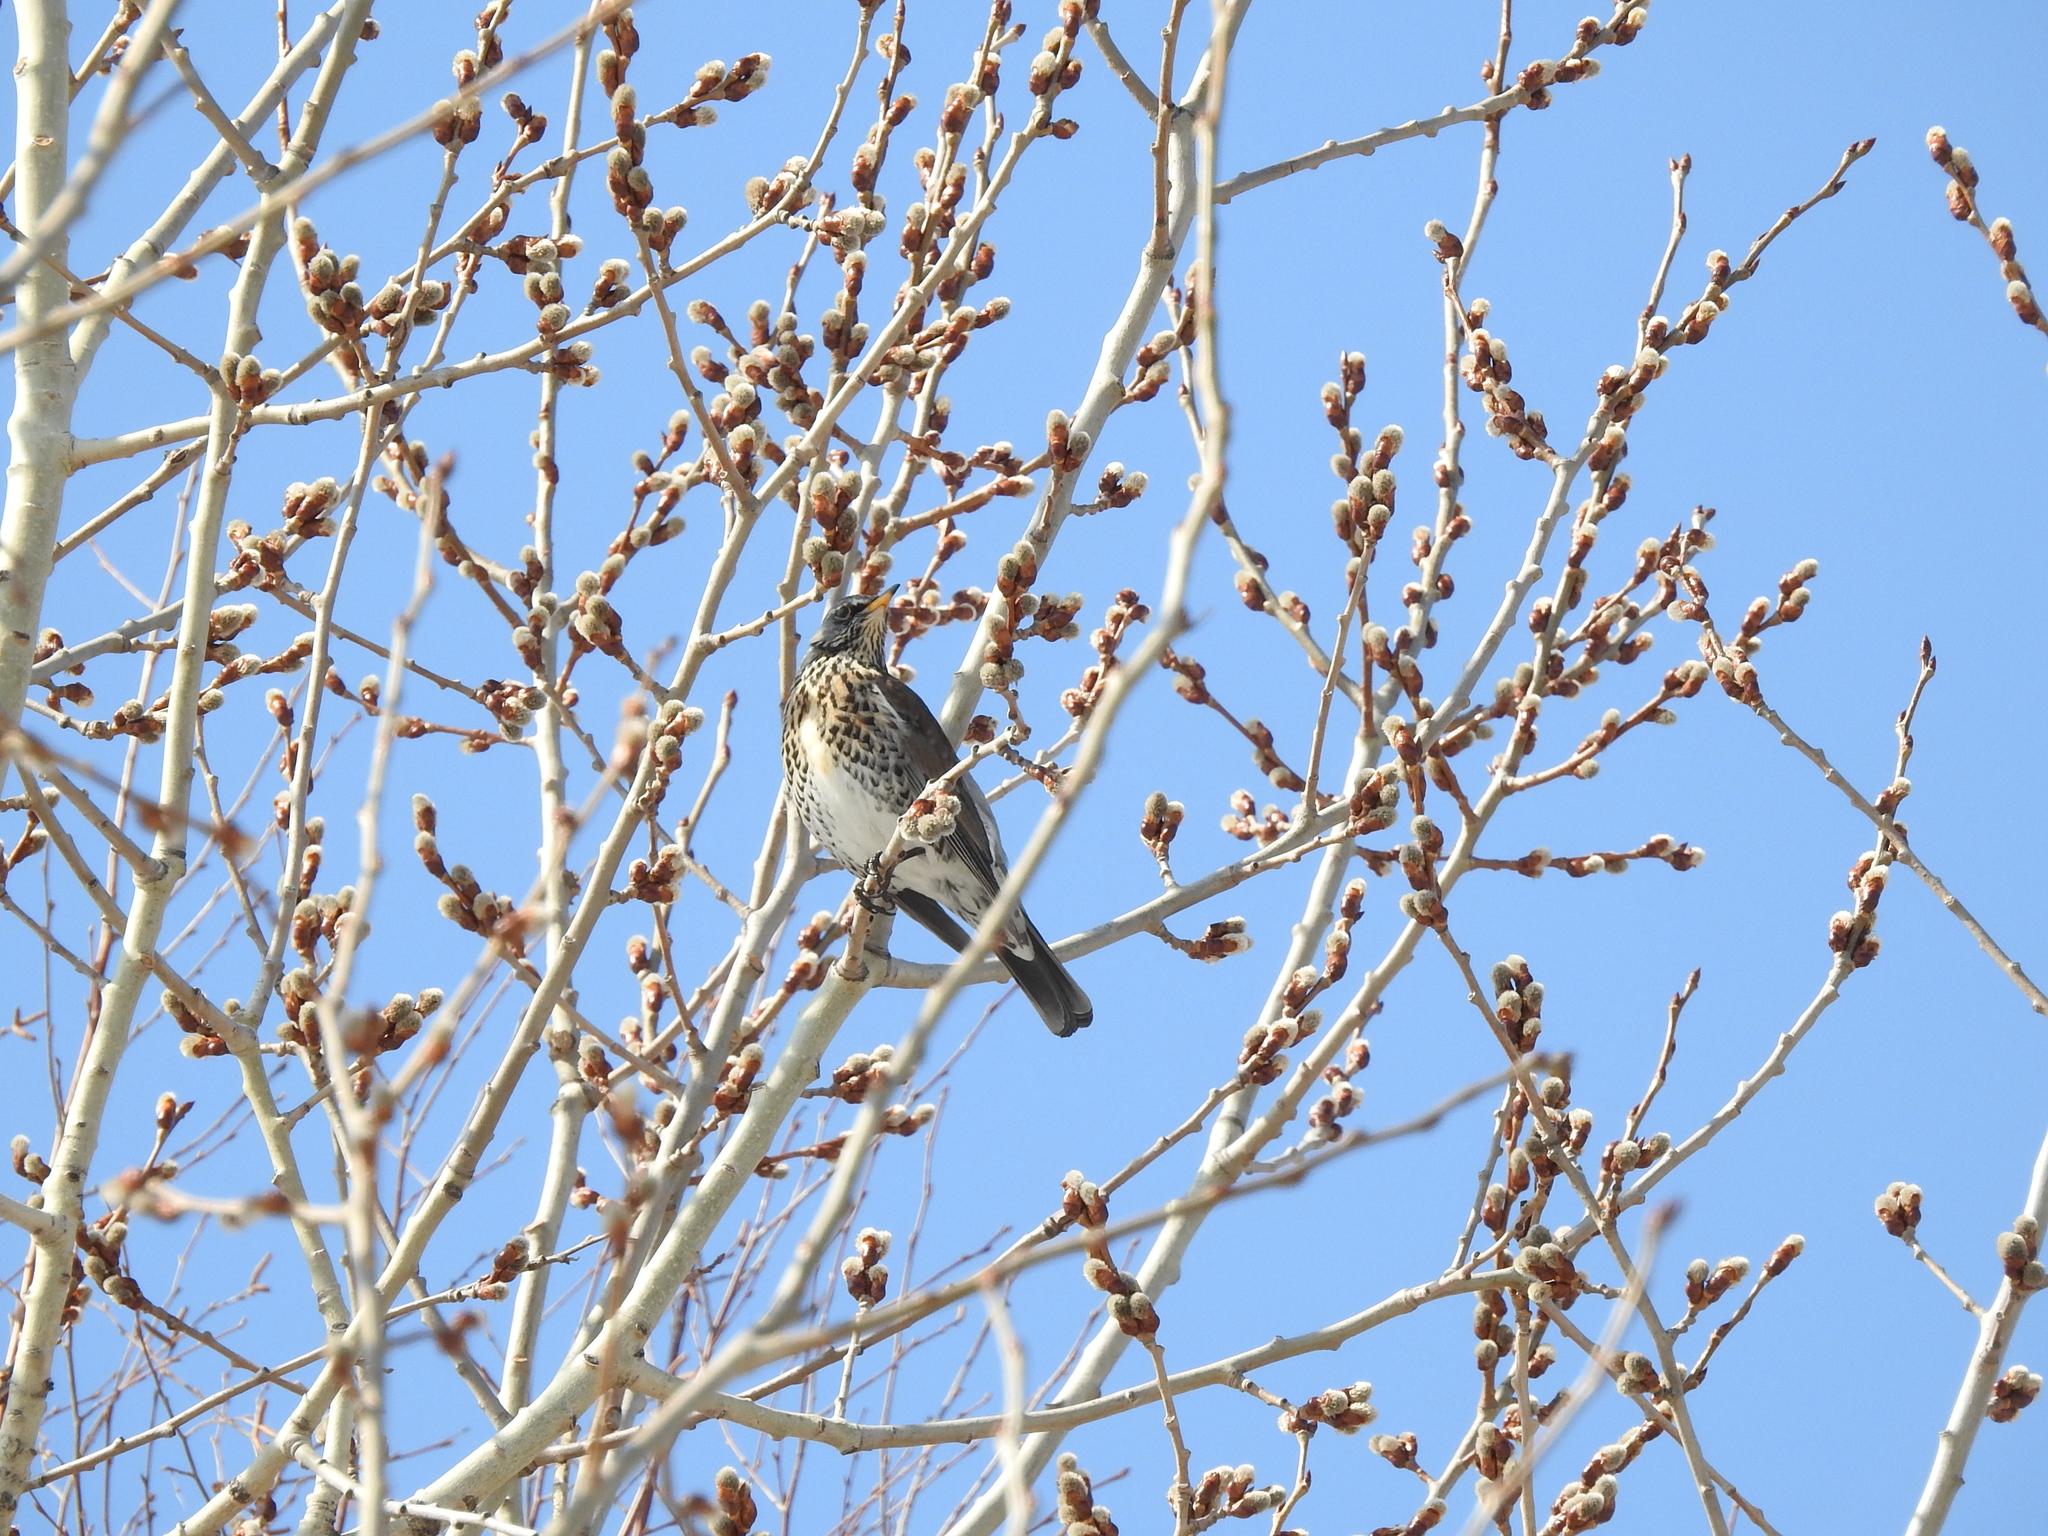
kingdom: Animalia
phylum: Chordata
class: Aves
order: Passeriformes
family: Turdidae
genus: Turdus
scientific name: Turdus pilaris
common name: Fieldfare
